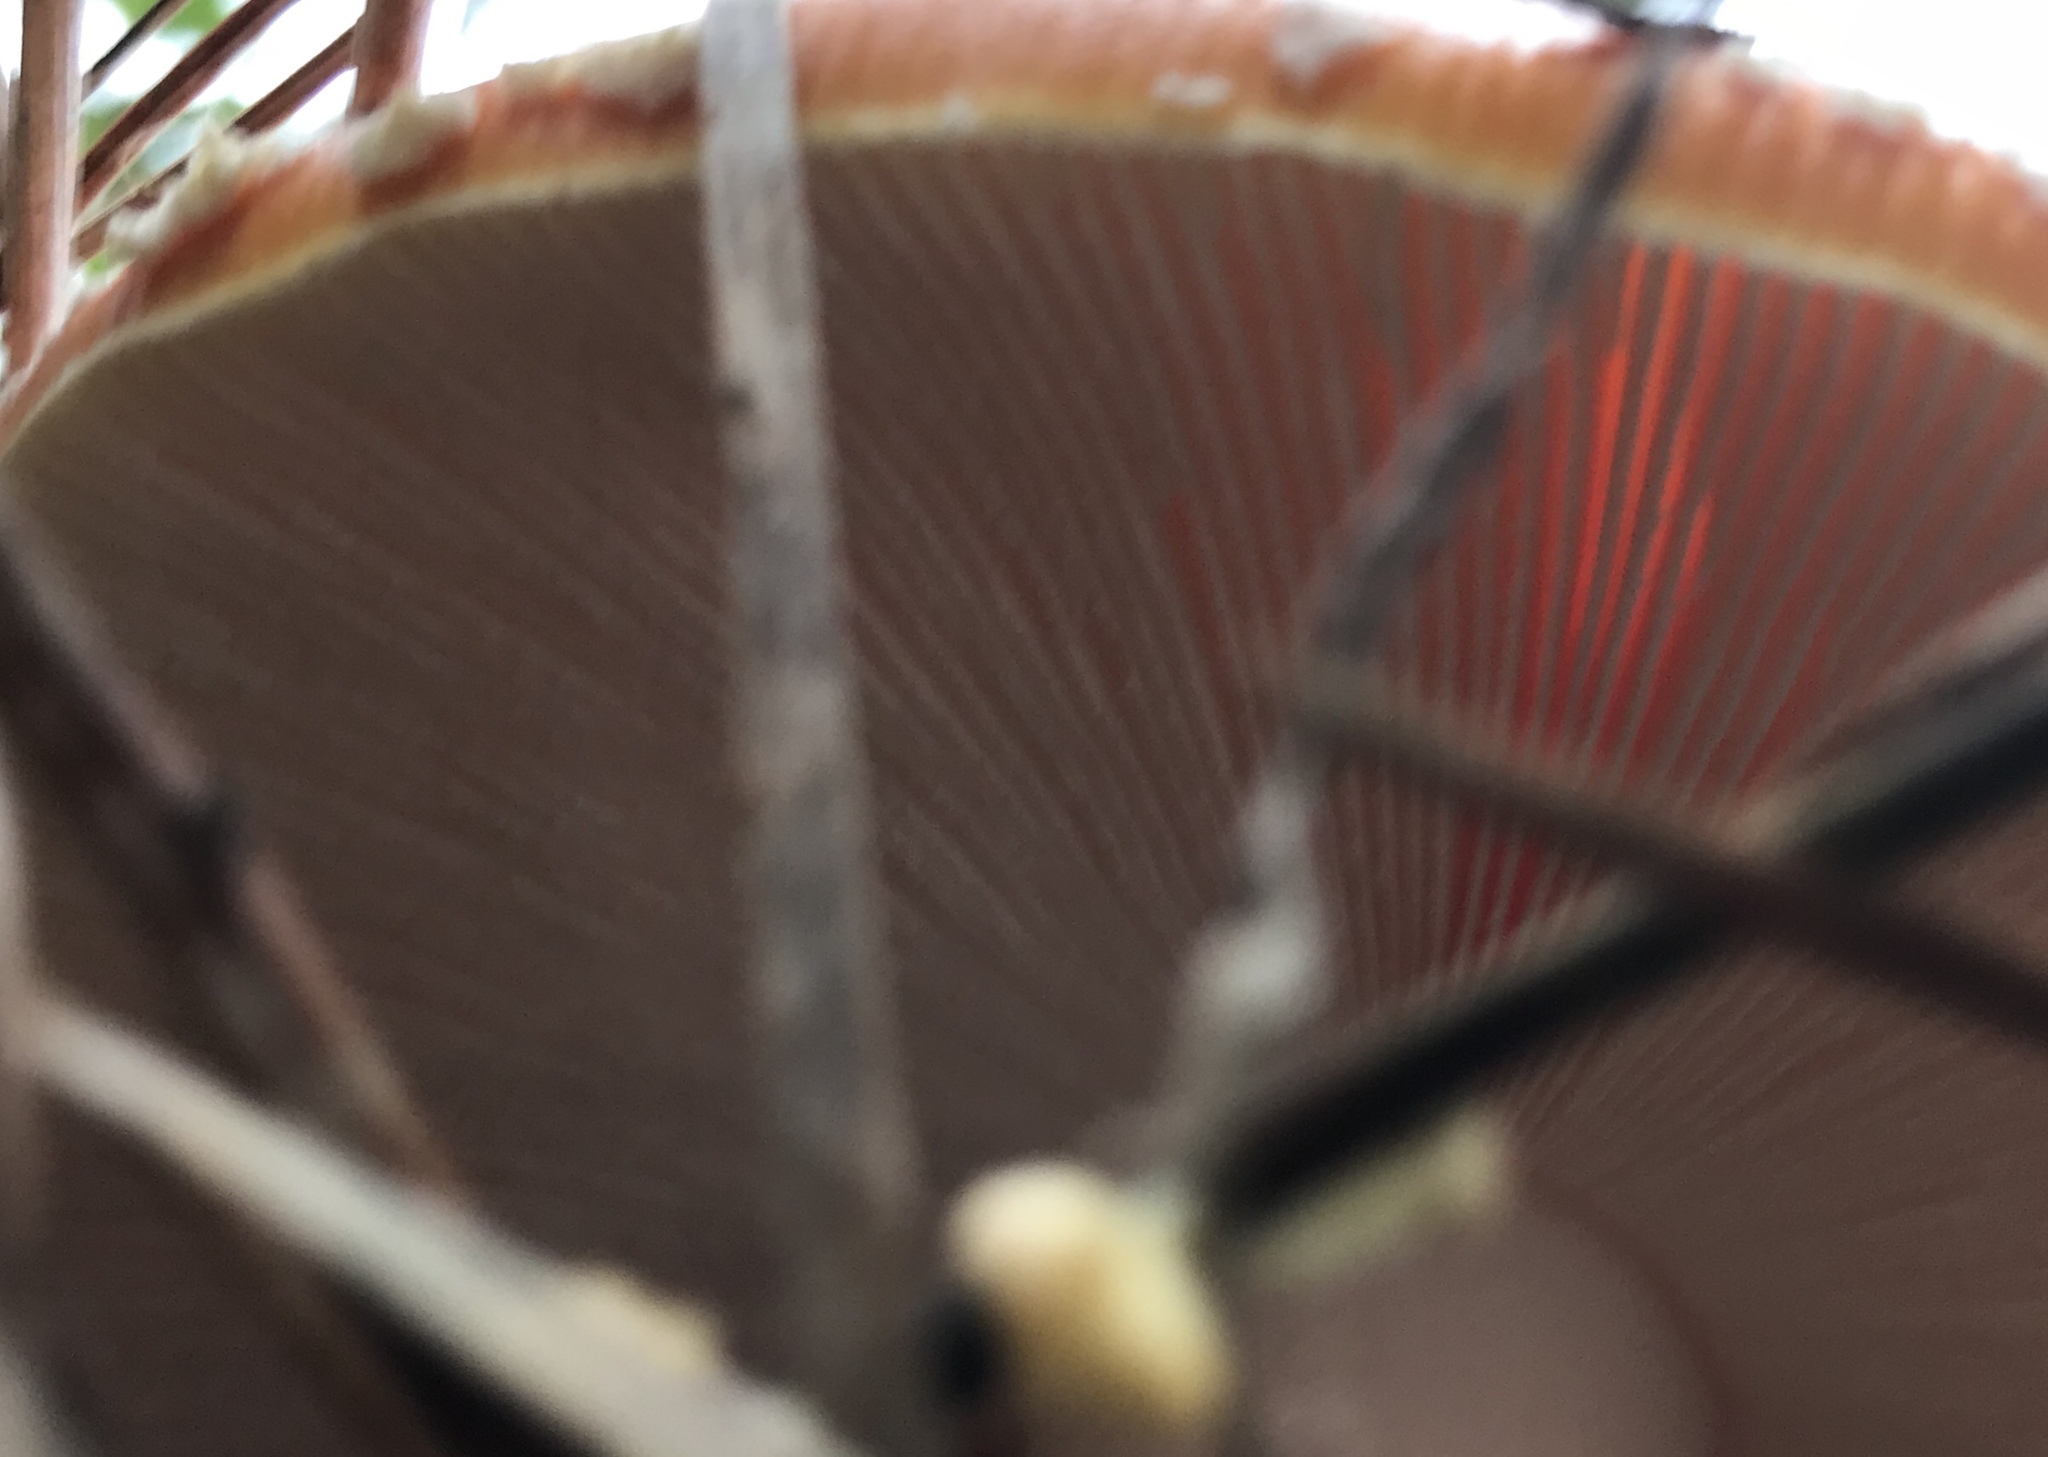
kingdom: Fungi
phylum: Basidiomycota
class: Agaricomycetes
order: Agaricales
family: Amanitaceae
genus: Amanita
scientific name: Amanita muscaria
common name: Fly agaric
